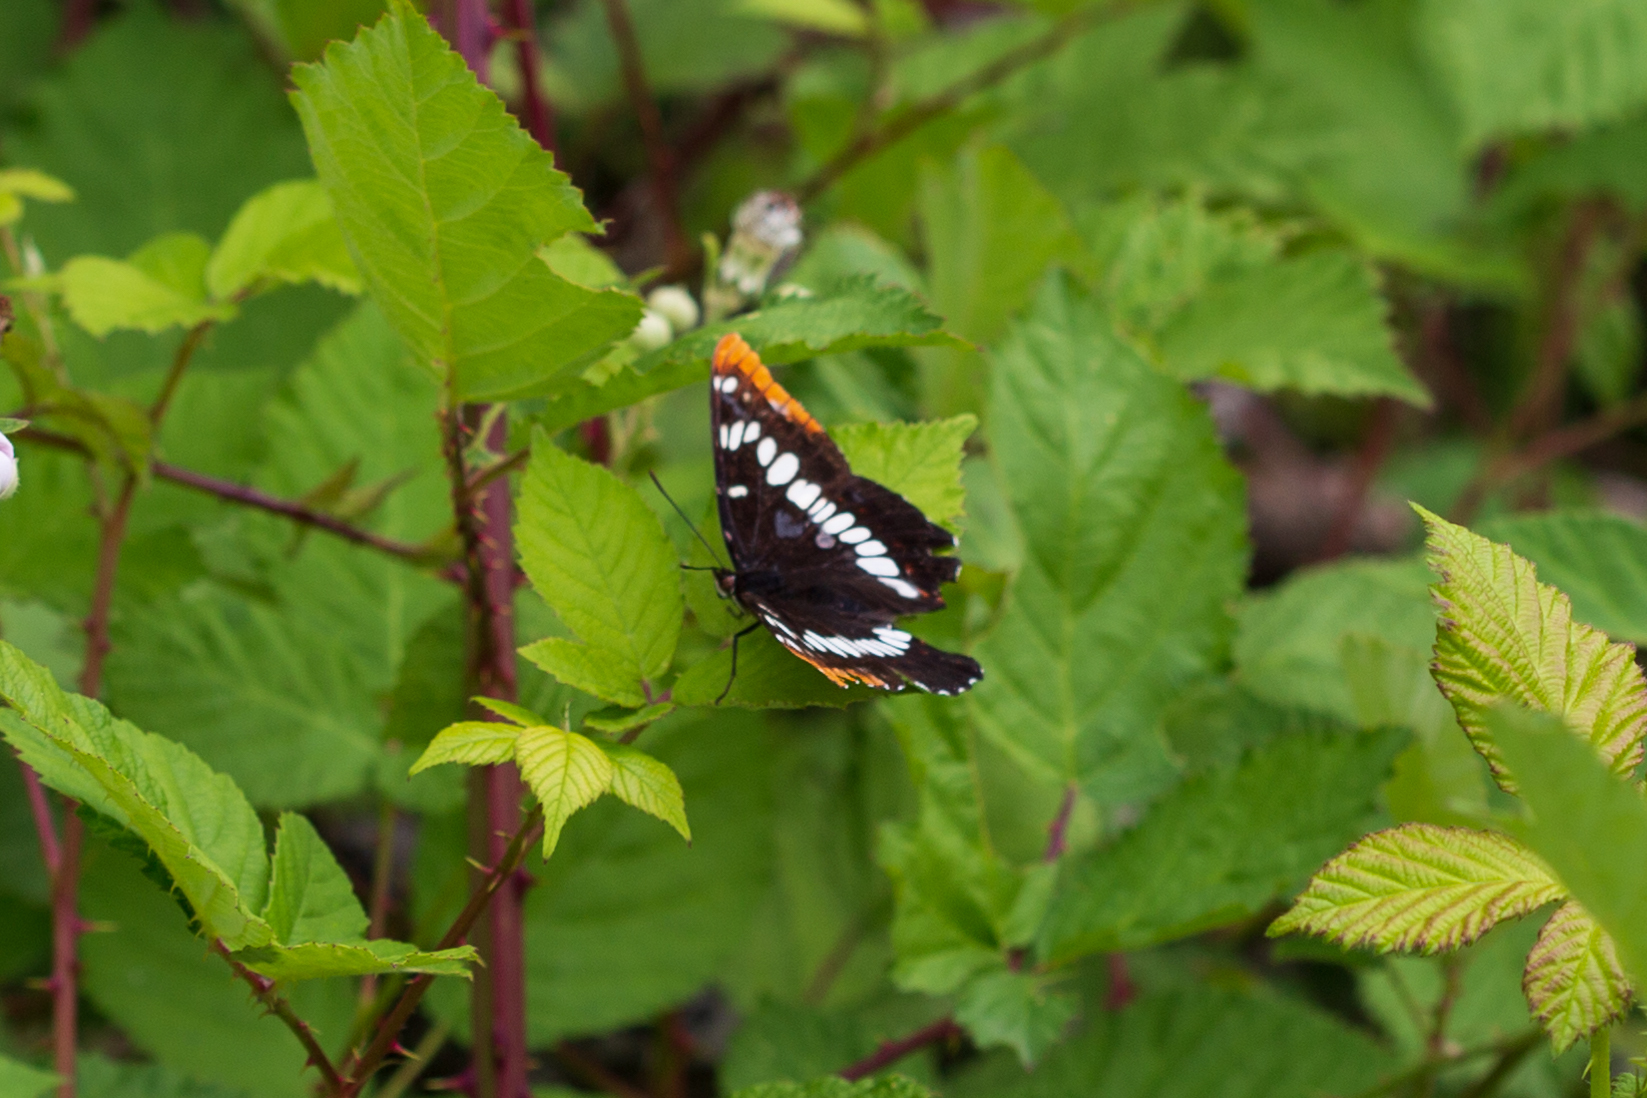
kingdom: Animalia
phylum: Arthropoda
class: Insecta
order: Lepidoptera
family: Nymphalidae
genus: Limenitis
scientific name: Limenitis lorquini
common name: Lorquin's admiral
